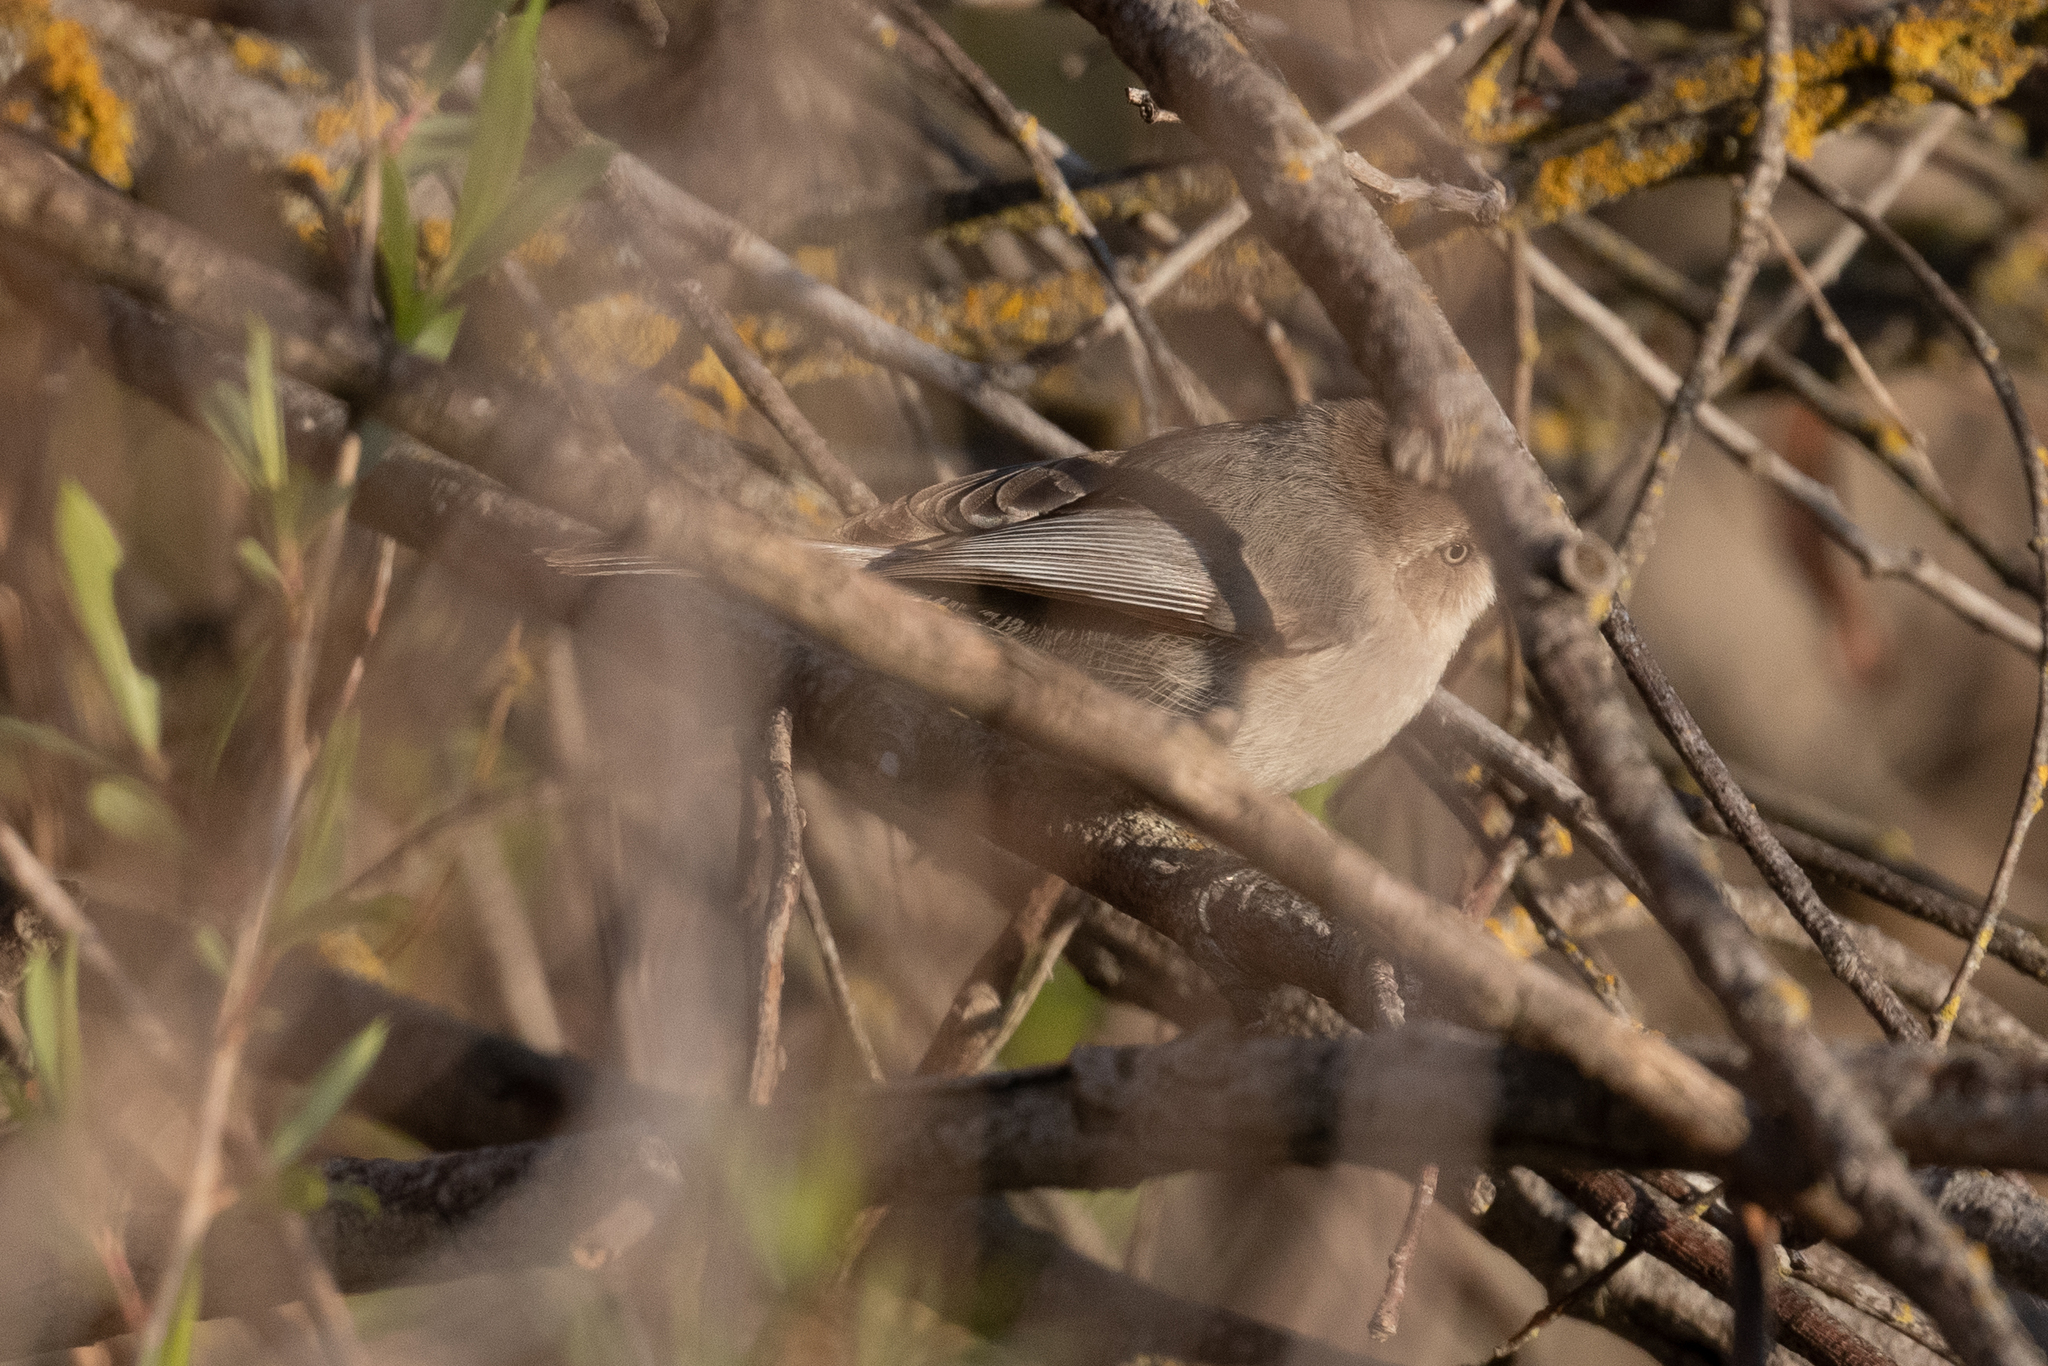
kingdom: Animalia
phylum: Chordata
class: Aves
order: Passeriformes
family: Aegithalidae
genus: Psaltriparus
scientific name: Psaltriparus minimus
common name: American bushtit
